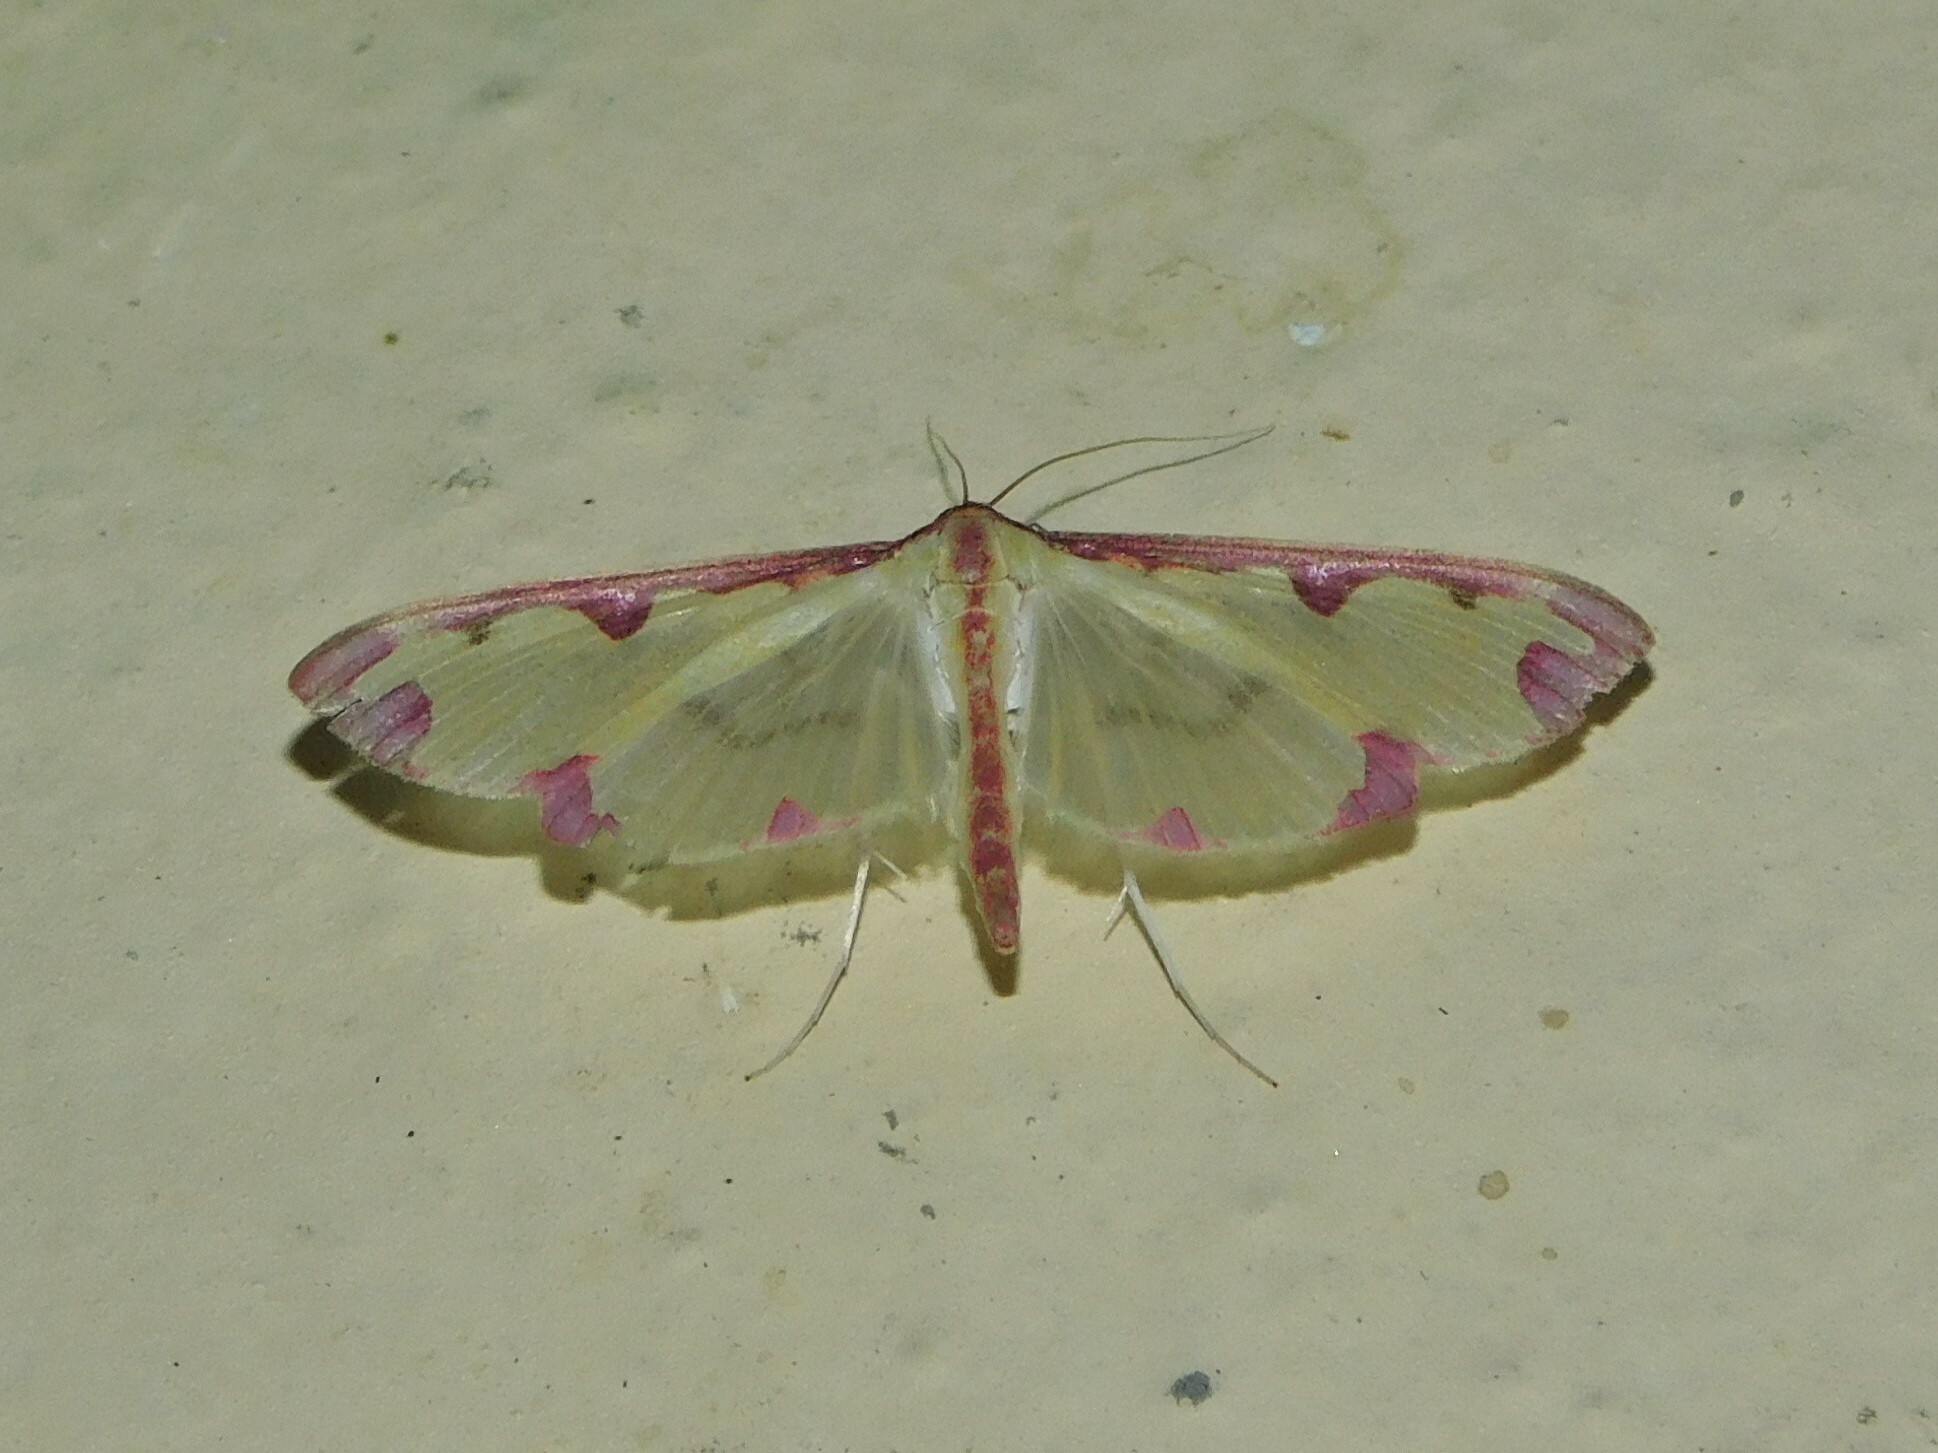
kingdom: Animalia
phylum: Arthropoda
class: Insecta
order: Lepidoptera
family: Crambidae
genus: Cadarena
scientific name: Cadarena pudoraria
